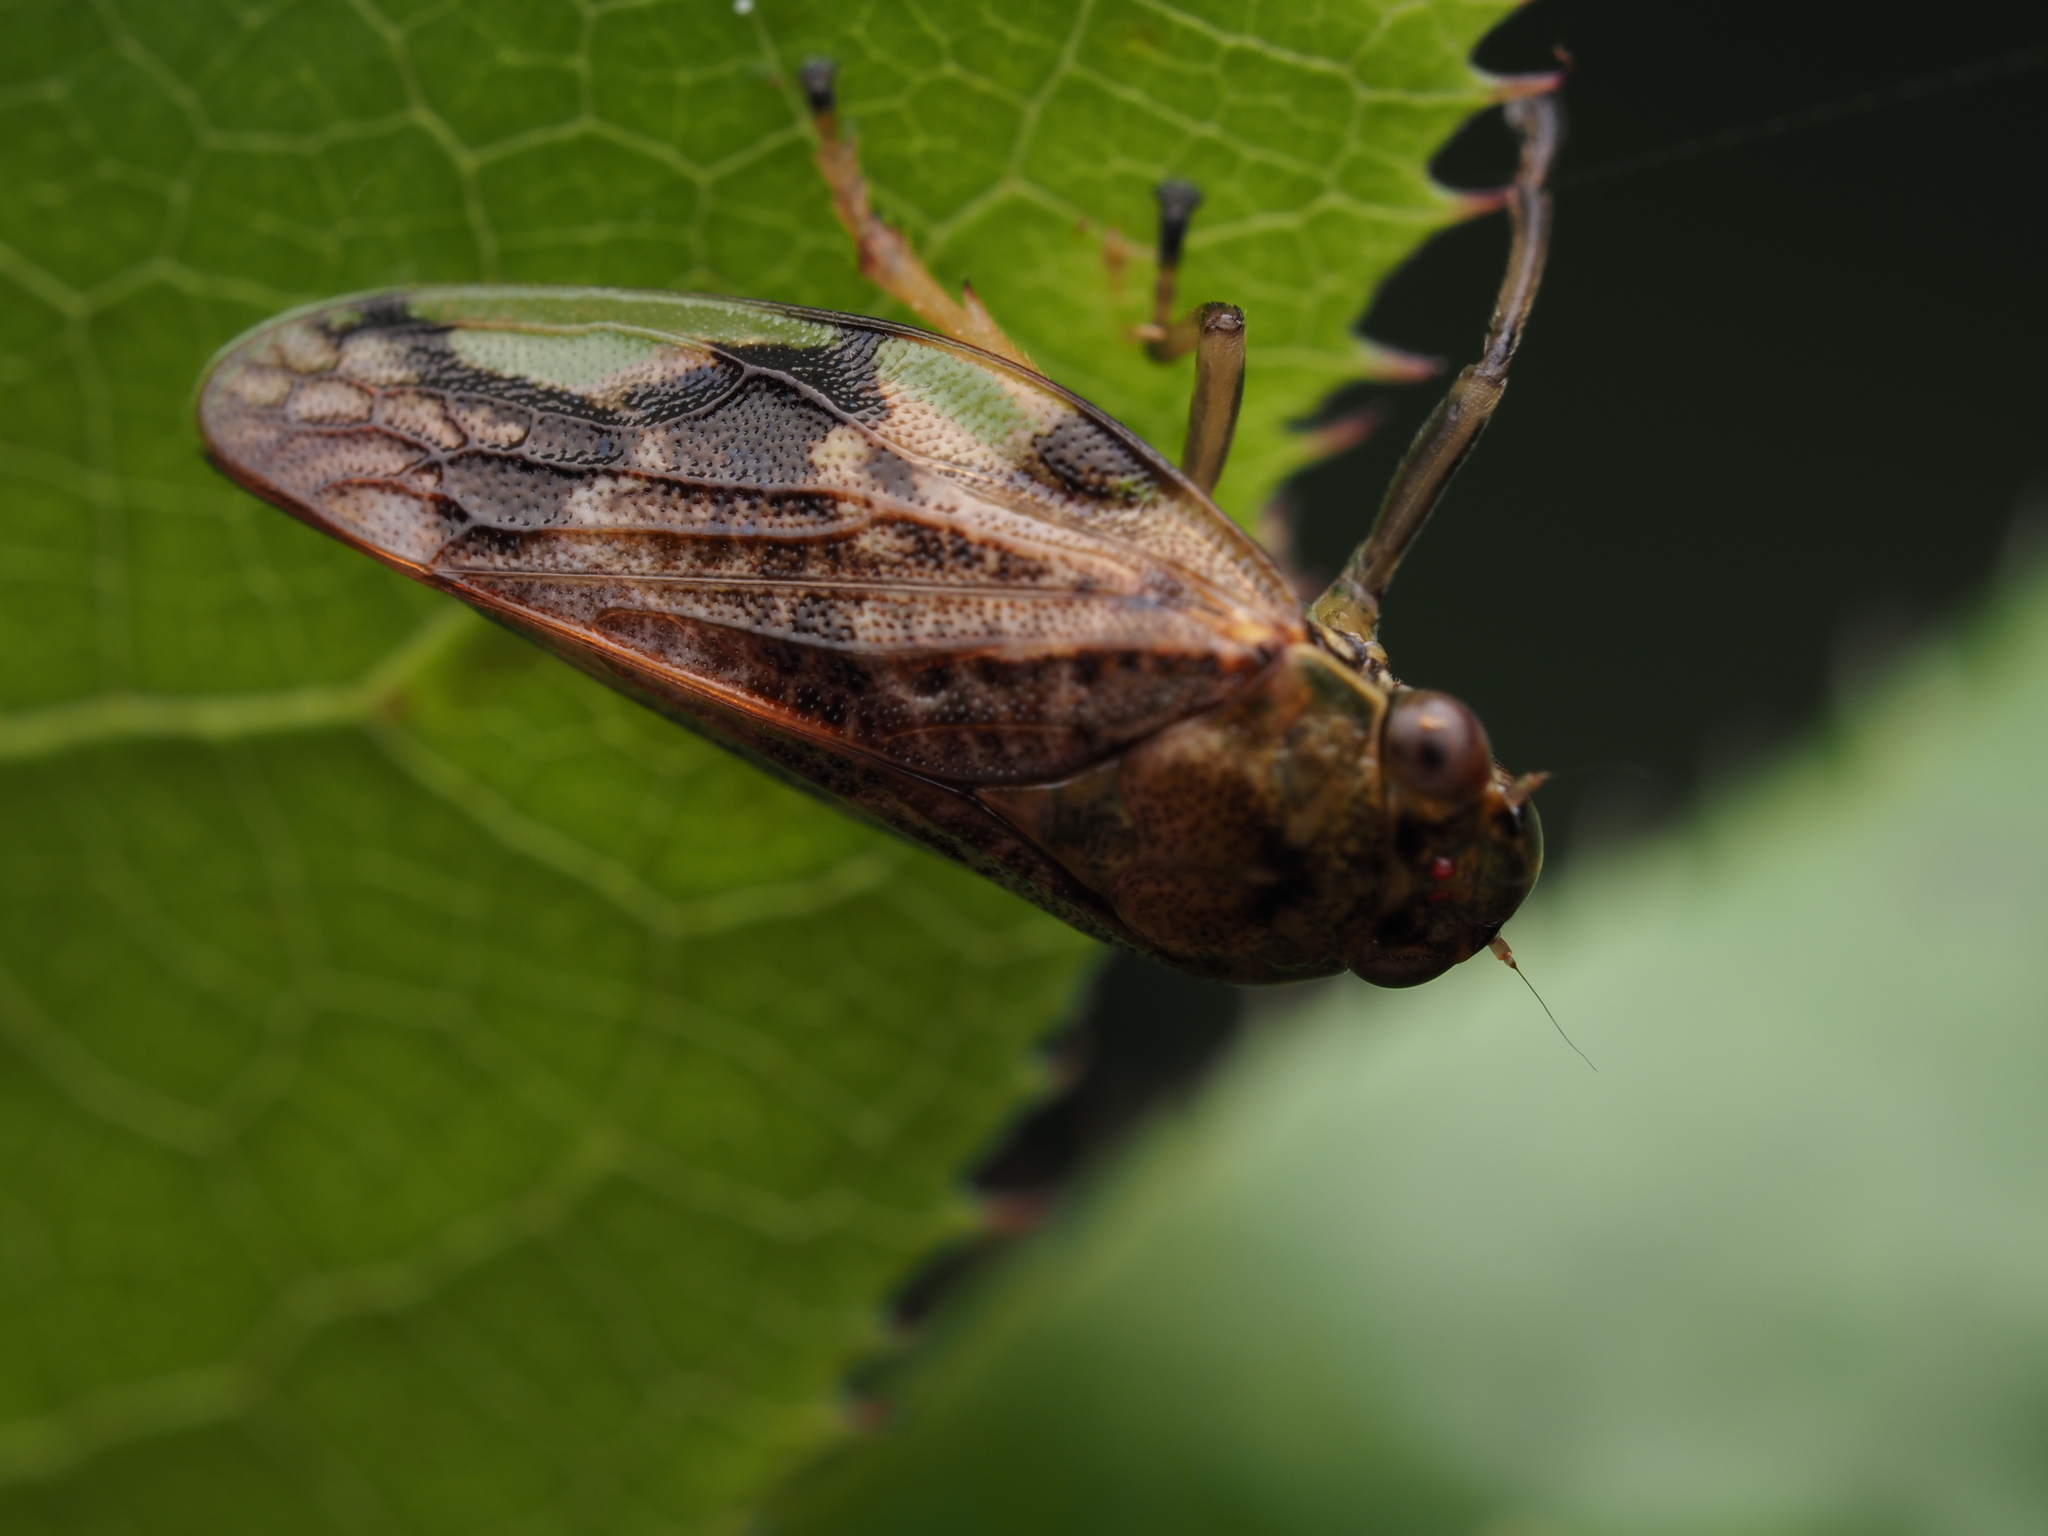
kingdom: Animalia
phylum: Arthropoda
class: Insecta
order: Hemiptera
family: Aphrophoridae
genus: Pseudaphronella
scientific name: Pseudaphronella jactator
